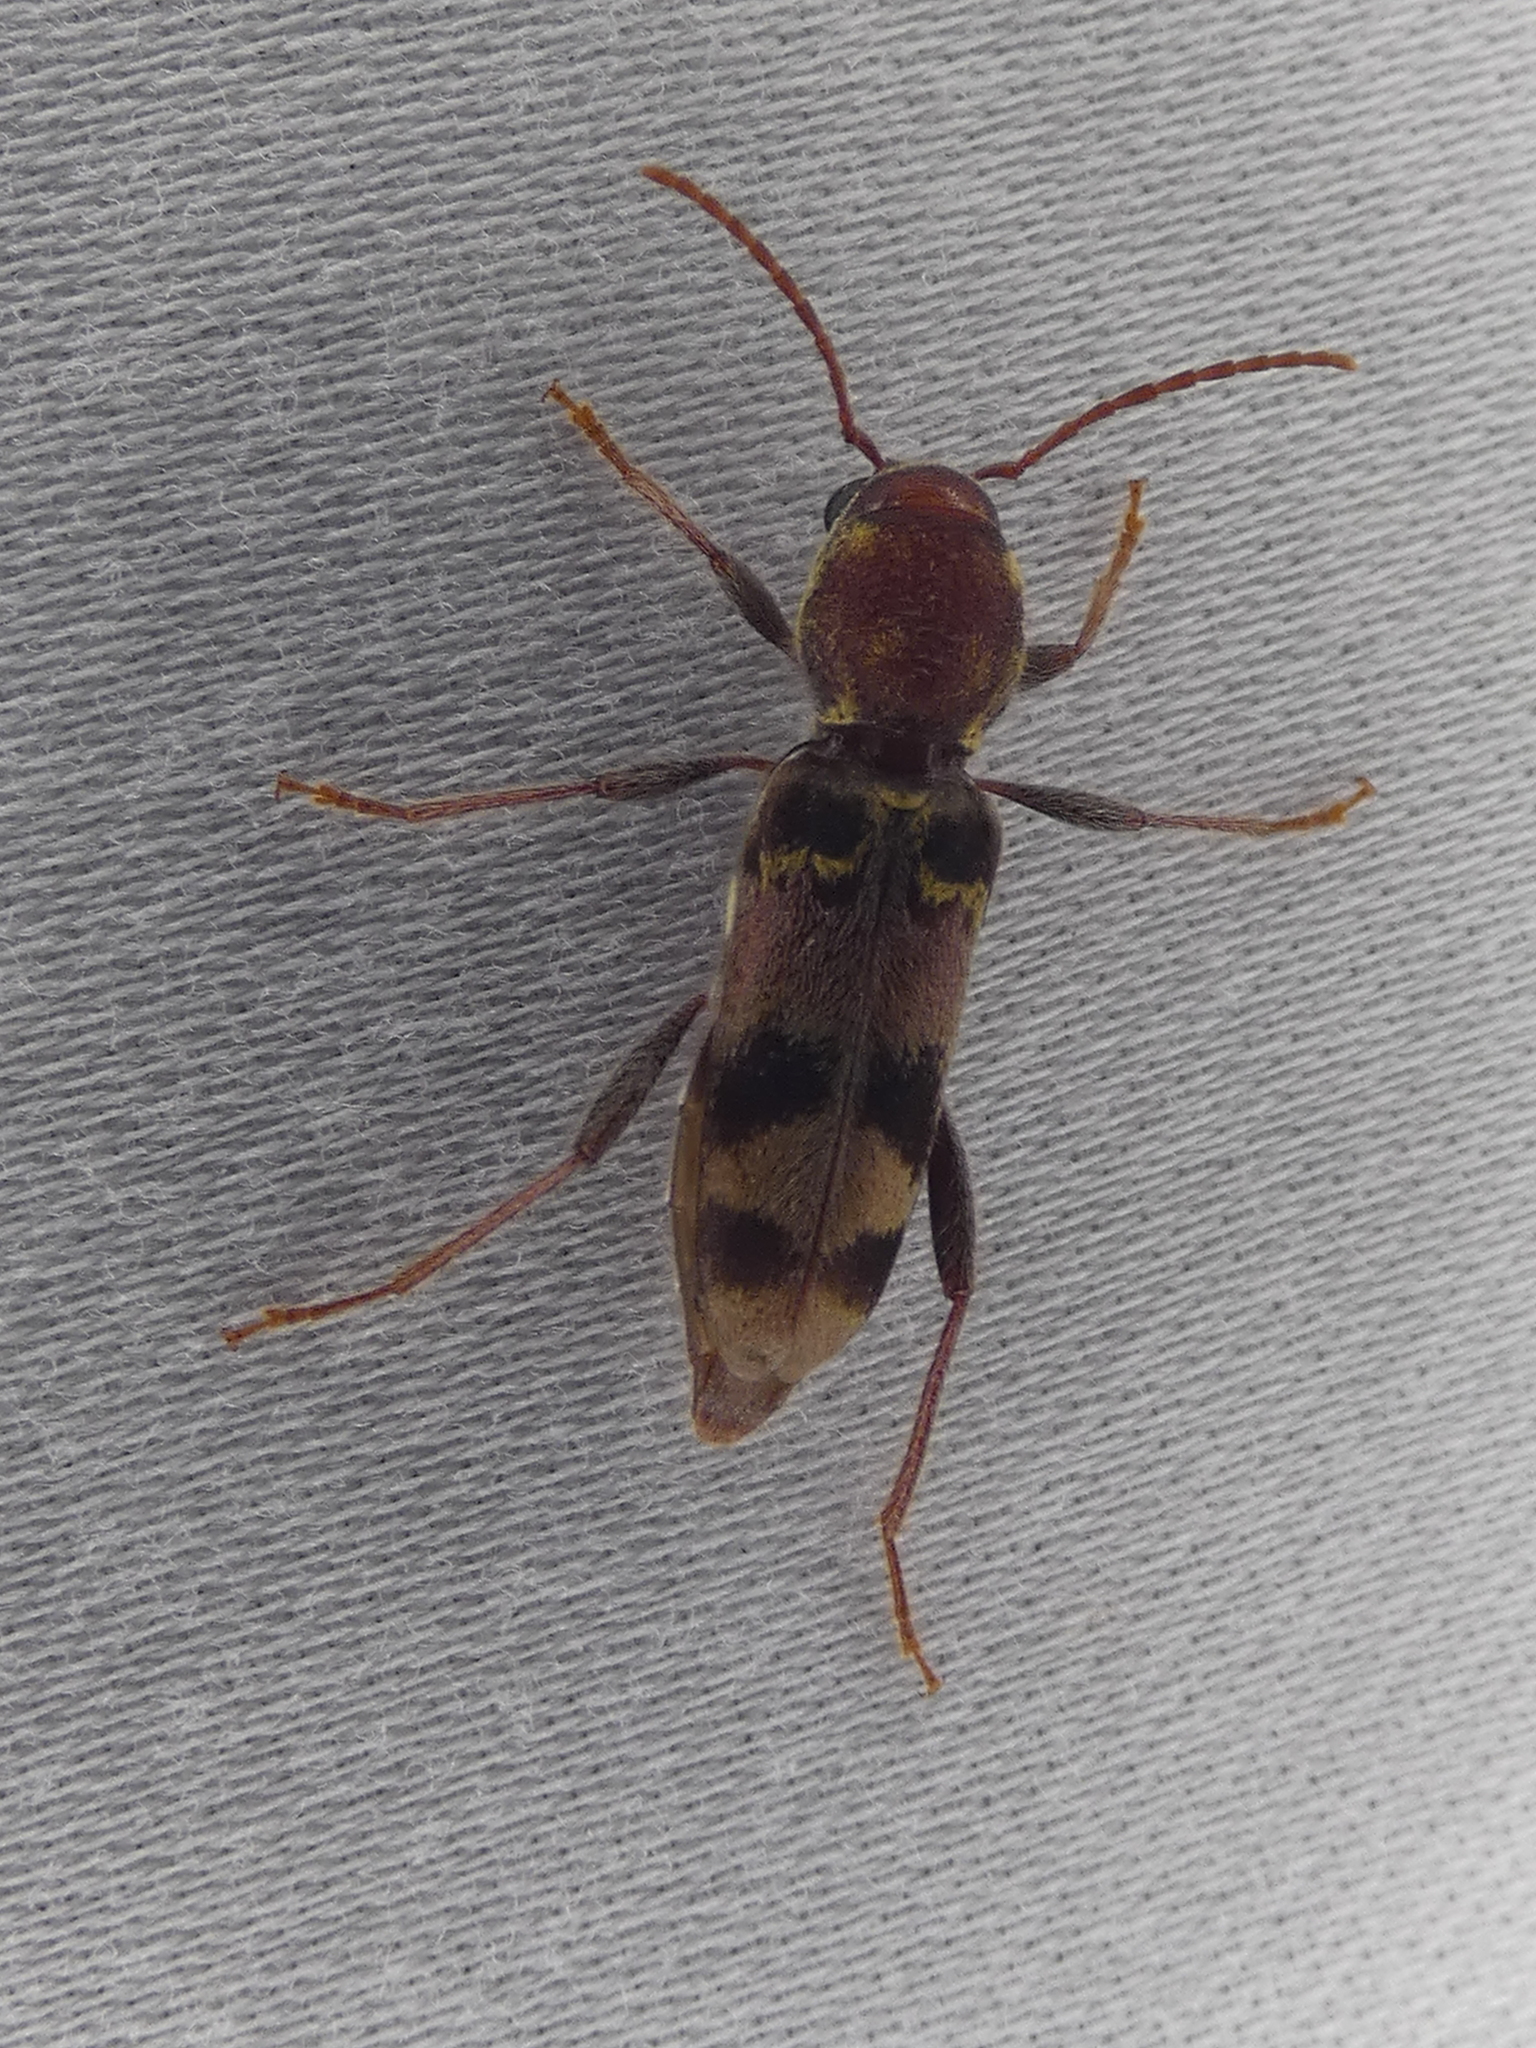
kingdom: Animalia
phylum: Arthropoda
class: Insecta
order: Coleoptera
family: Cerambycidae
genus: Xylotrechus
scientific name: Xylotrechus colonus
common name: Long-horned beetle
